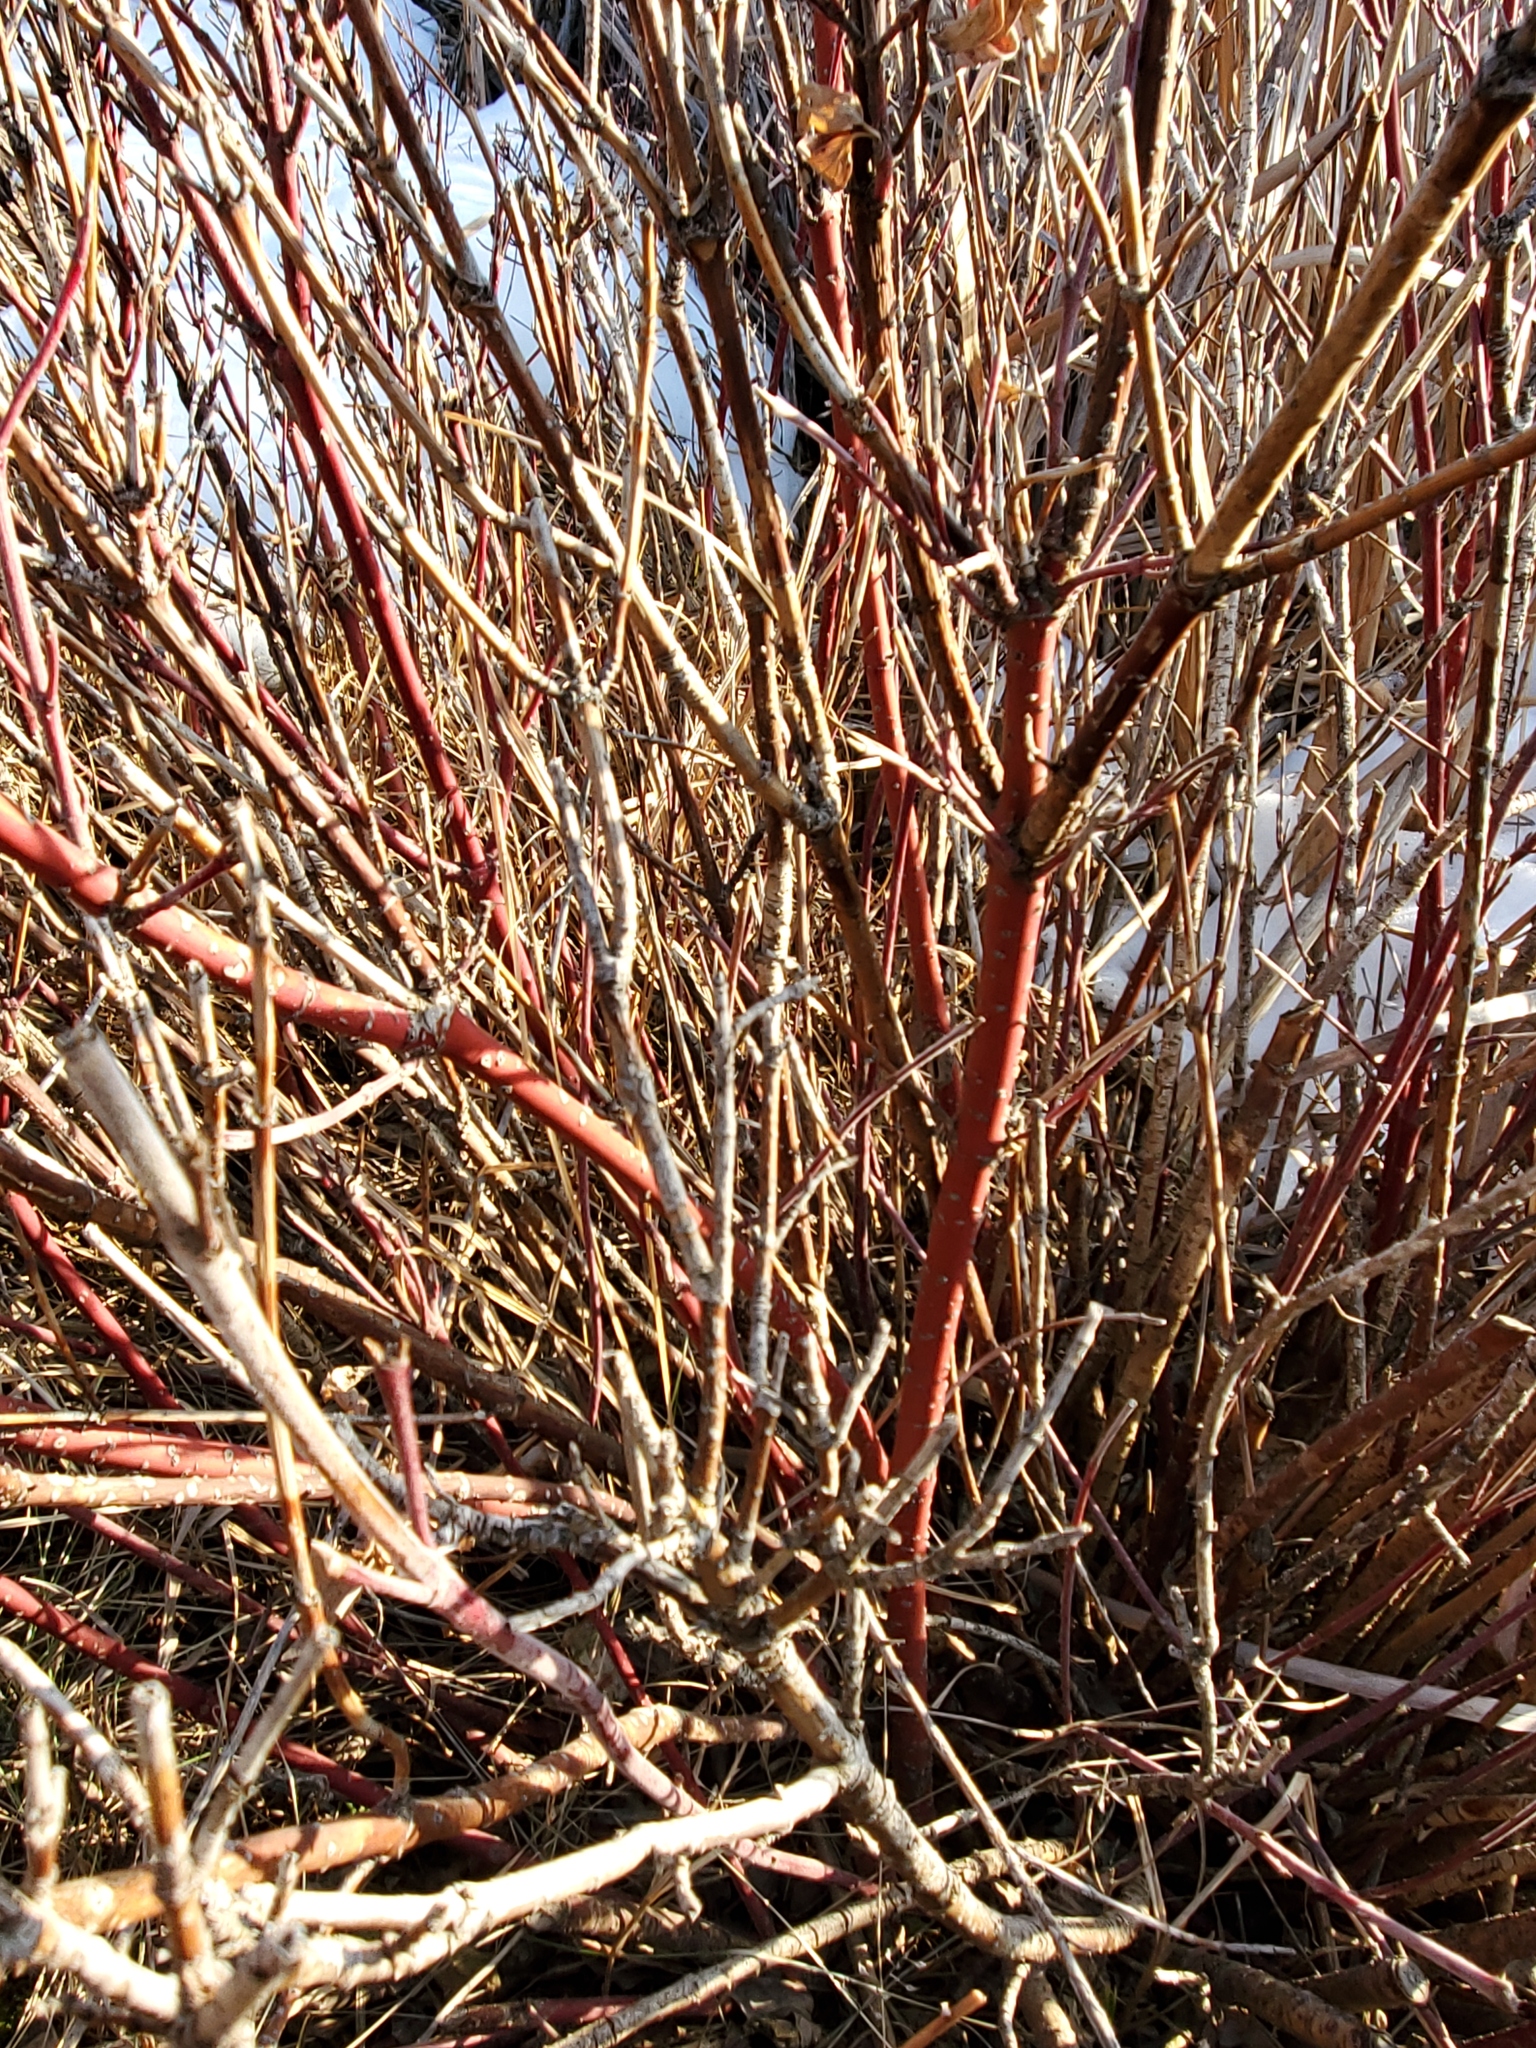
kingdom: Plantae
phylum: Tracheophyta
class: Magnoliopsida
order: Cornales
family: Cornaceae
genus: Cornus
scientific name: Cornus sericea
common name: Red-osier dogwood
